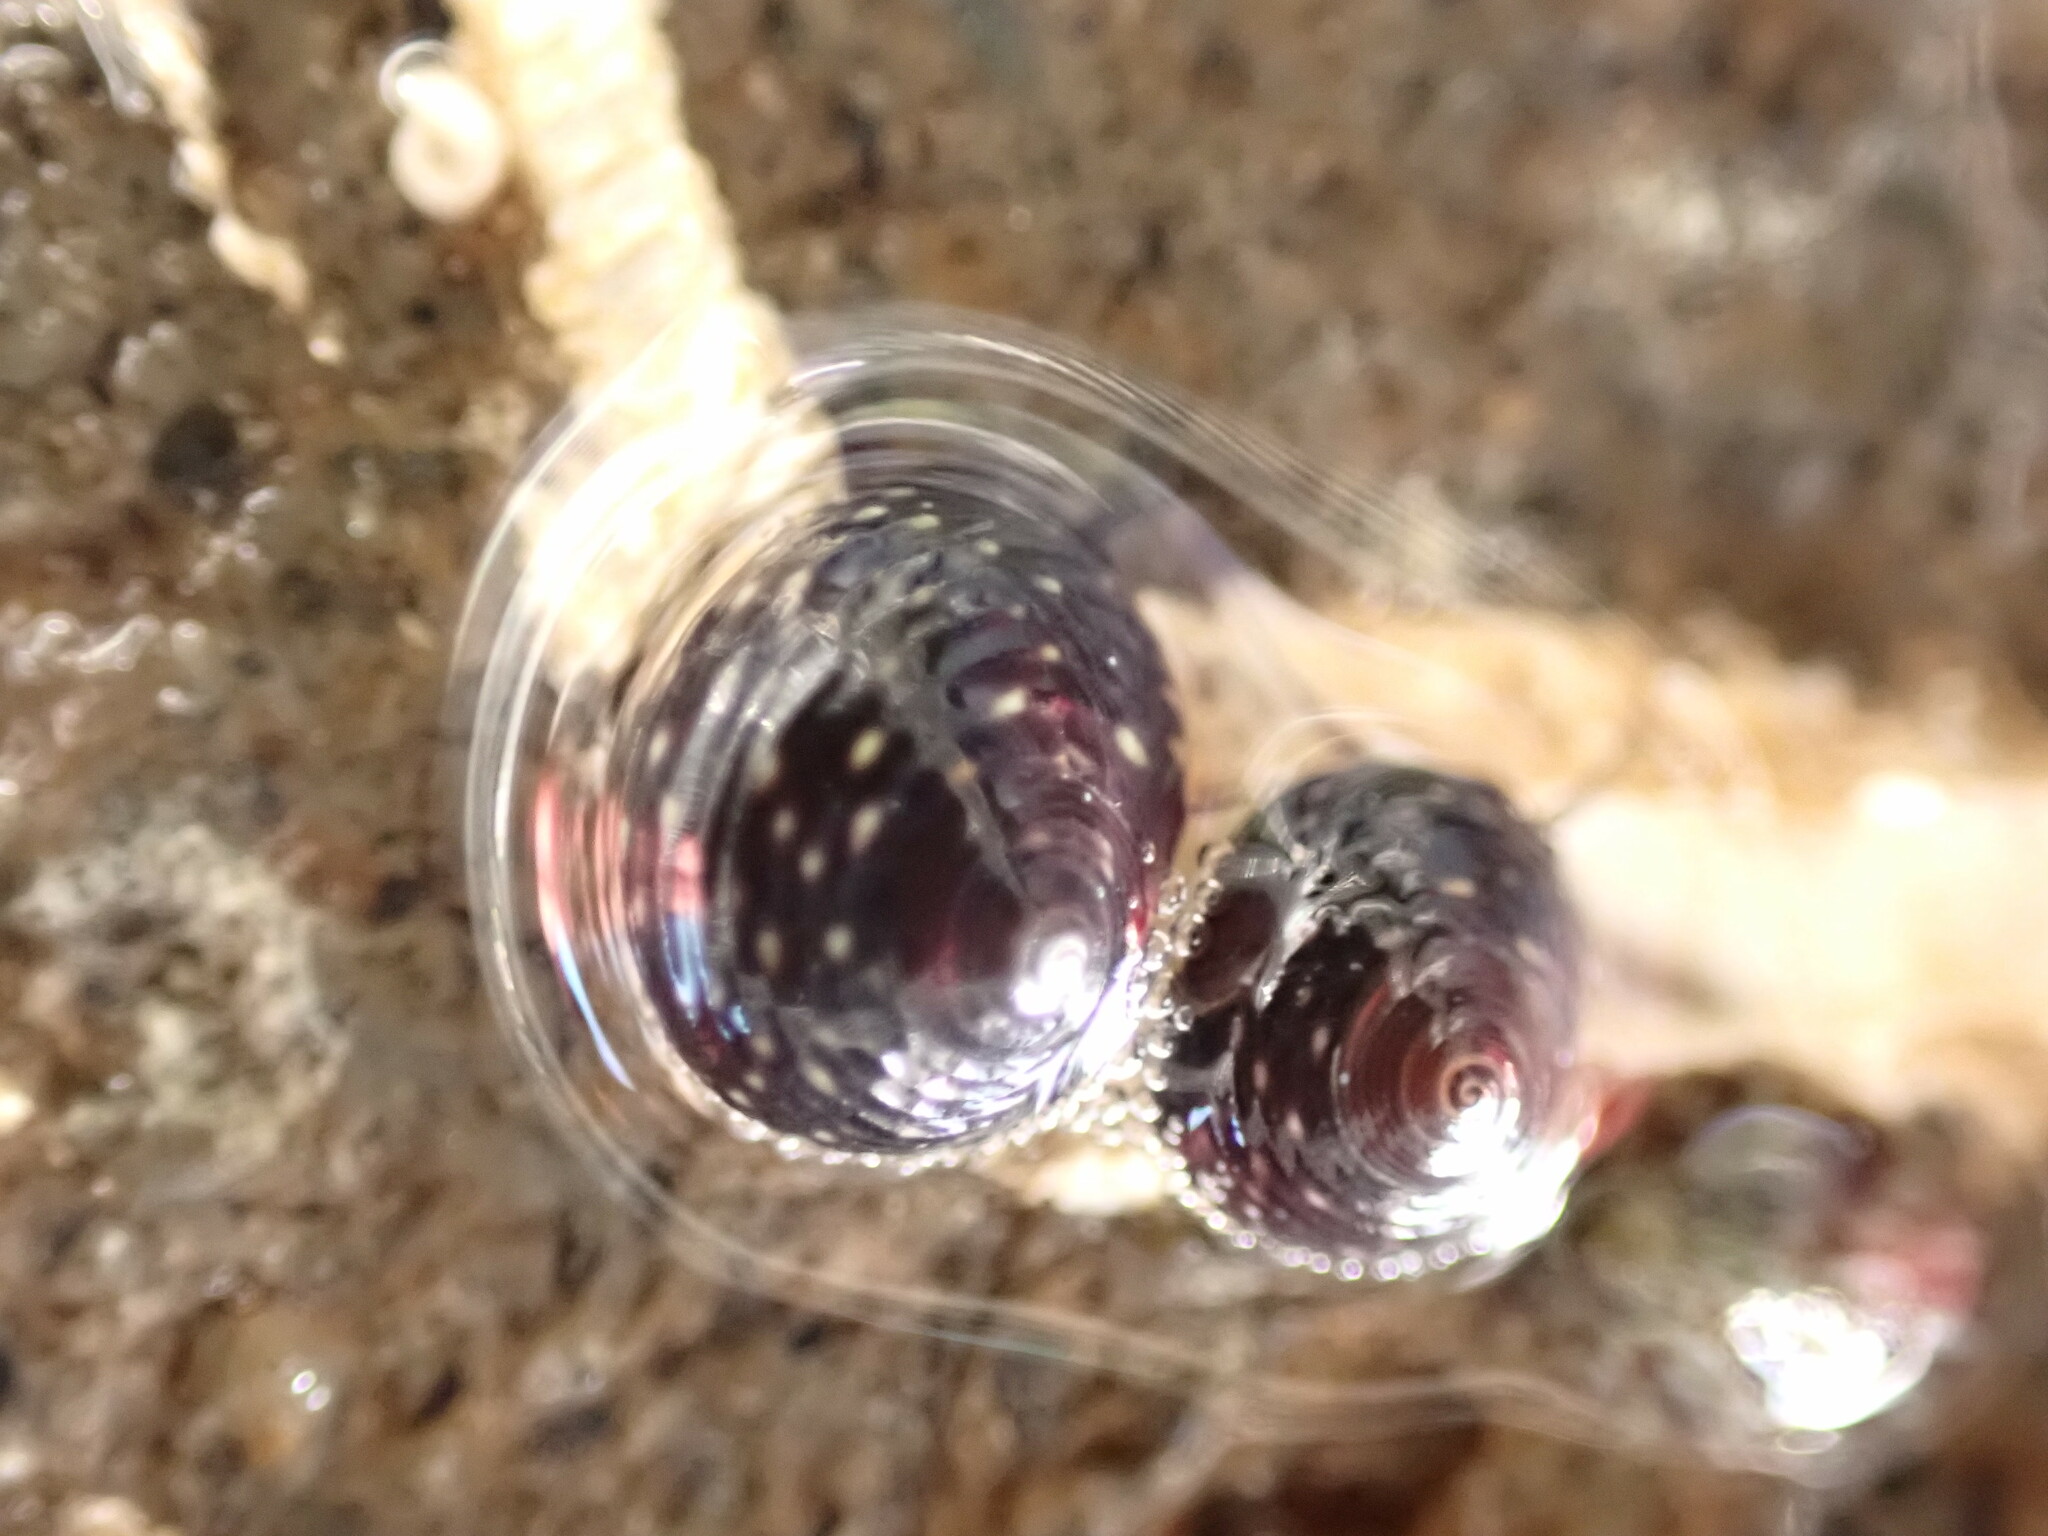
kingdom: Animalia
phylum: Mollusca
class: Gastropoda
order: Trochida
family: Trochidae
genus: Diloma
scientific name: Diloma aridum
